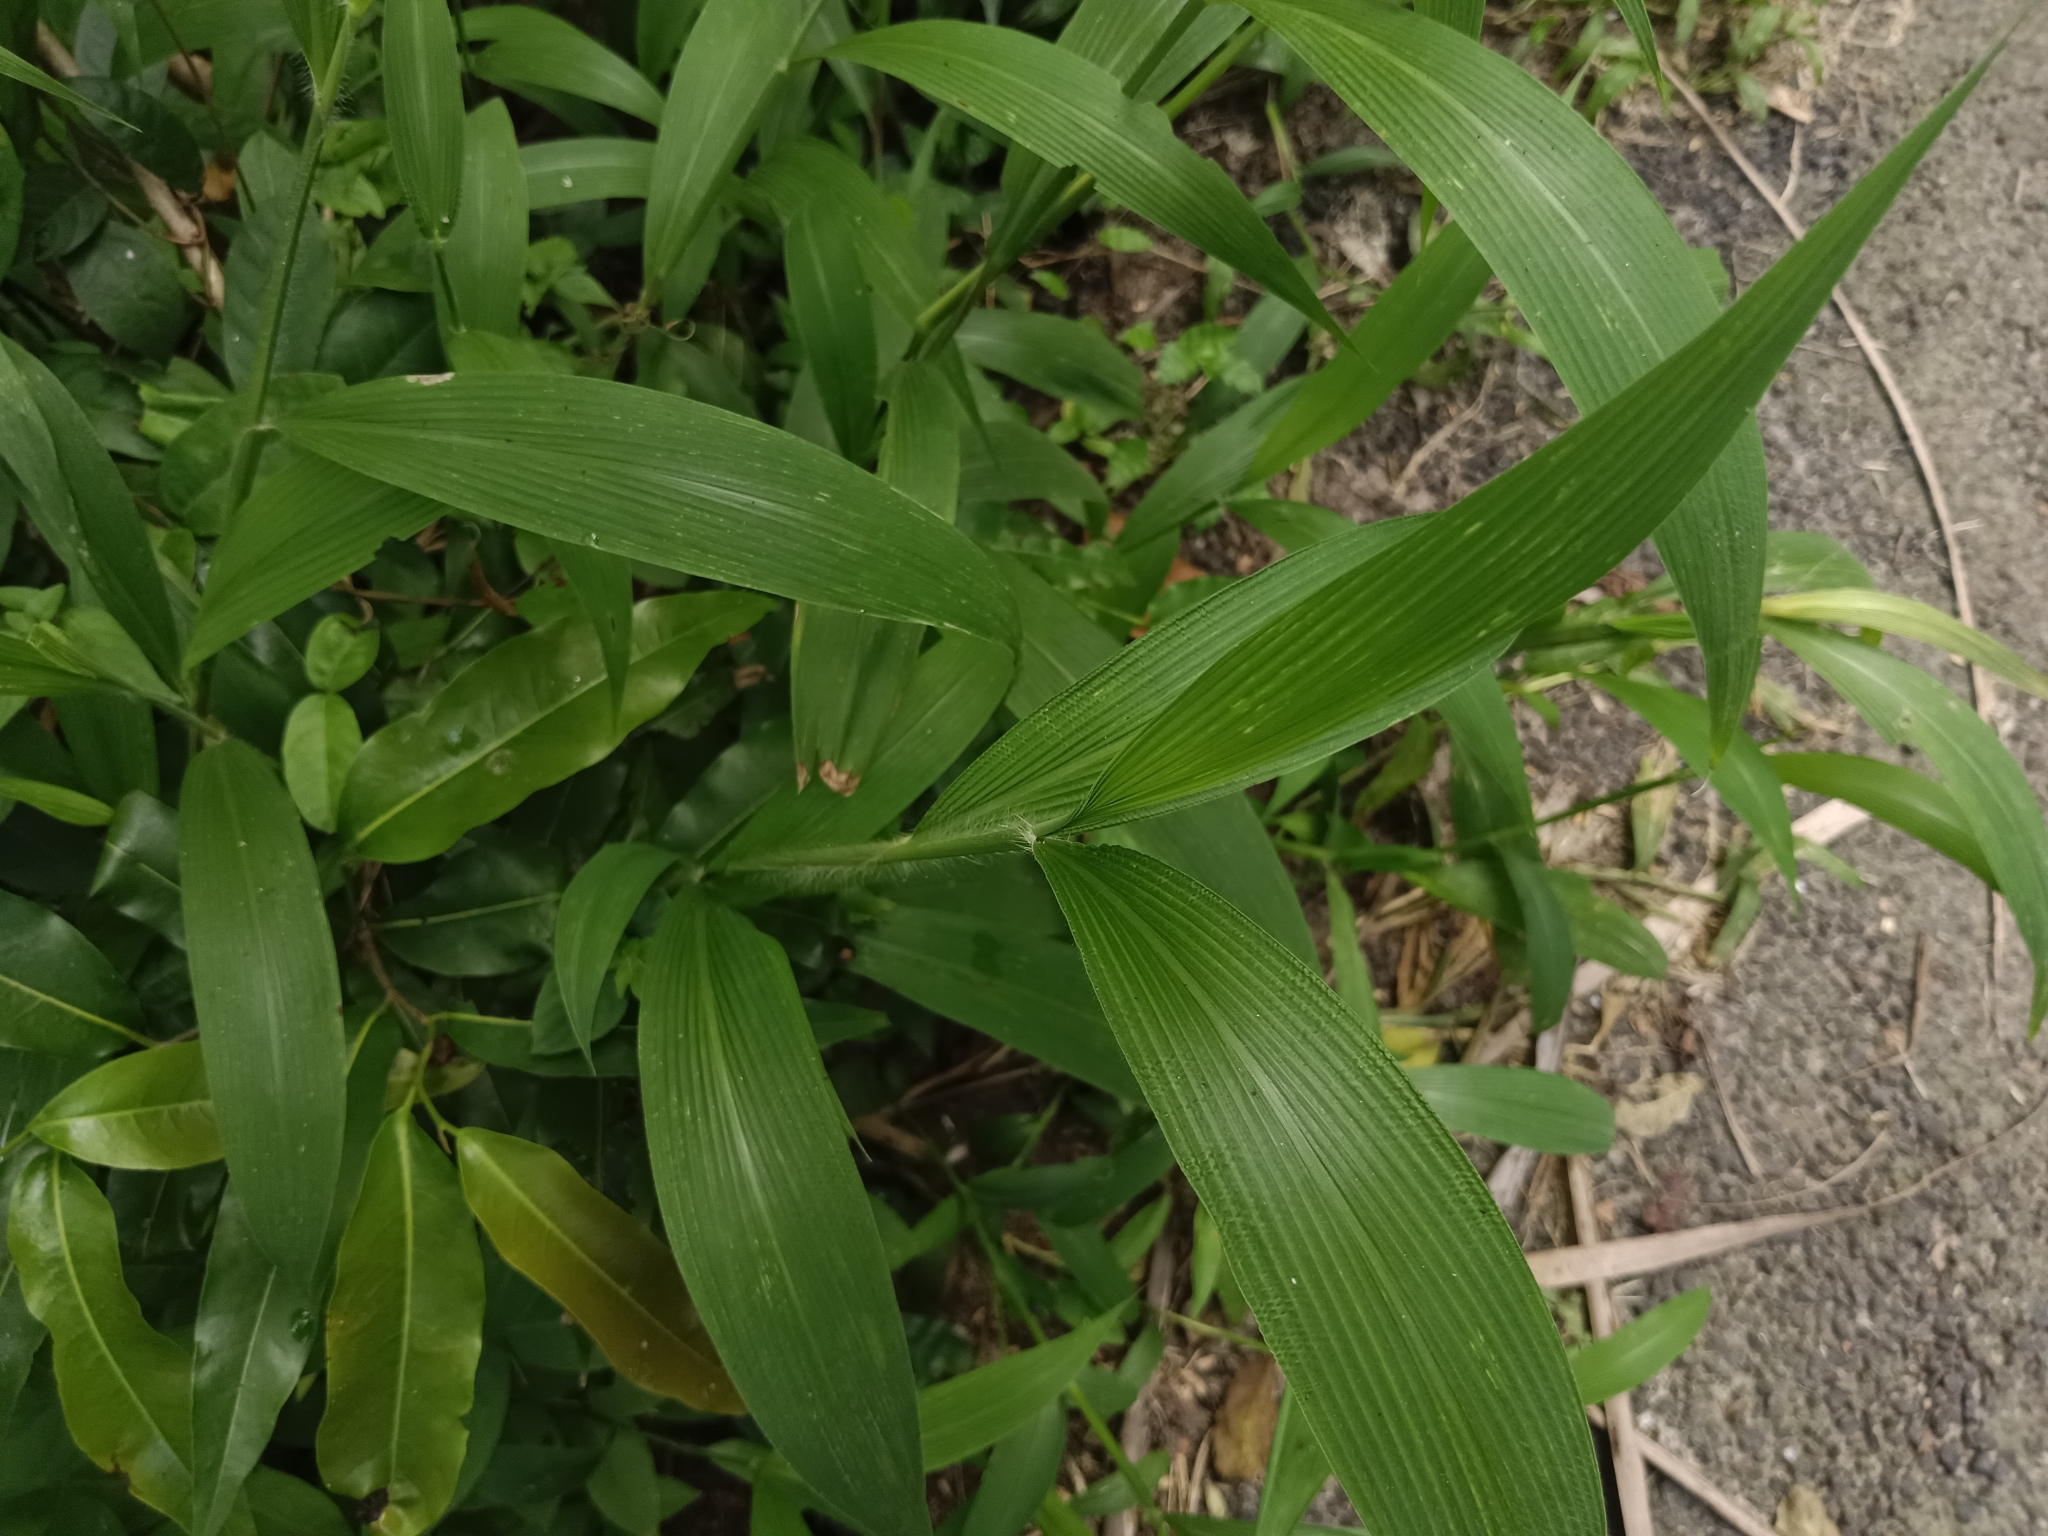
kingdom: Plantae
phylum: Tracheophyta
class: Liliopsida
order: Poales
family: Poaceae
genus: Setaria
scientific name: Setaria palmifolia
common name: Broadleaved bristlegrass
